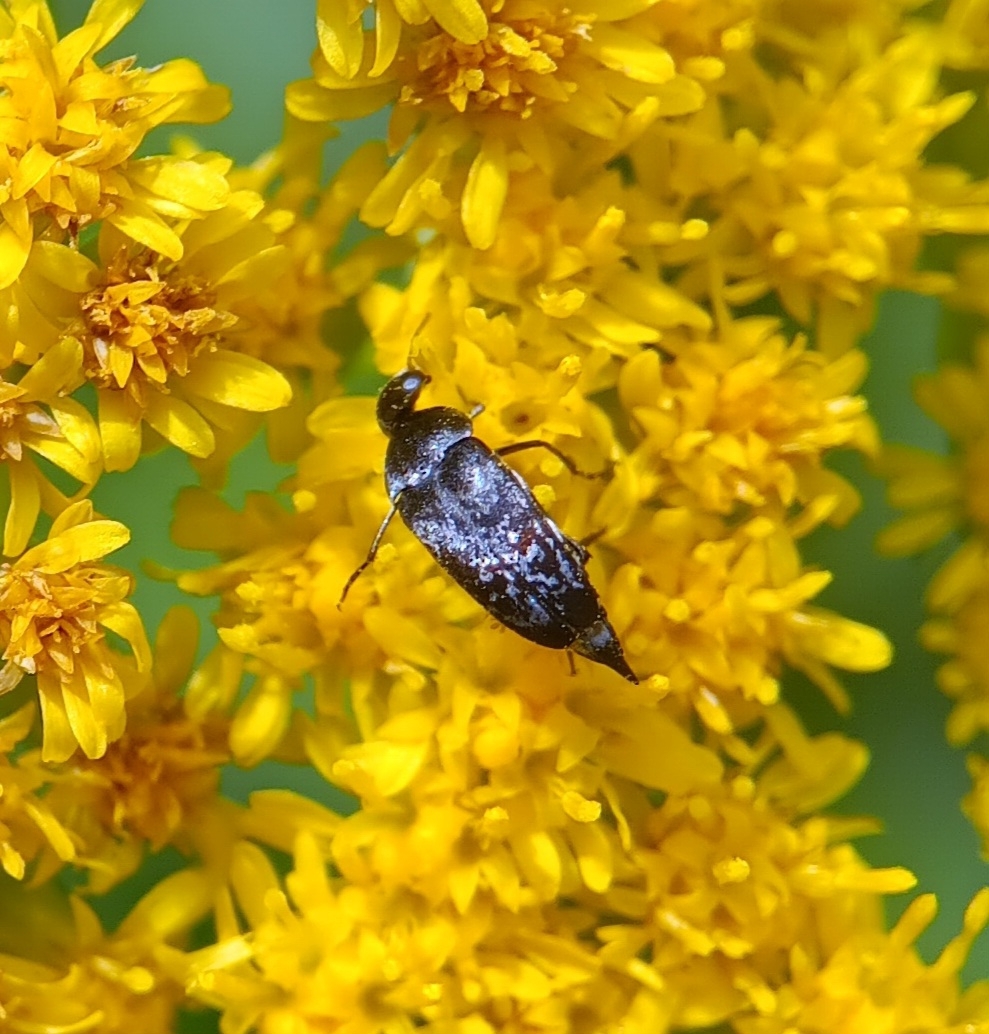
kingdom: Animalia
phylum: Arthropoda
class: Insecta
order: Coleoptera
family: Mordellidae
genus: Mordella
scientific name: Mordella marginata
